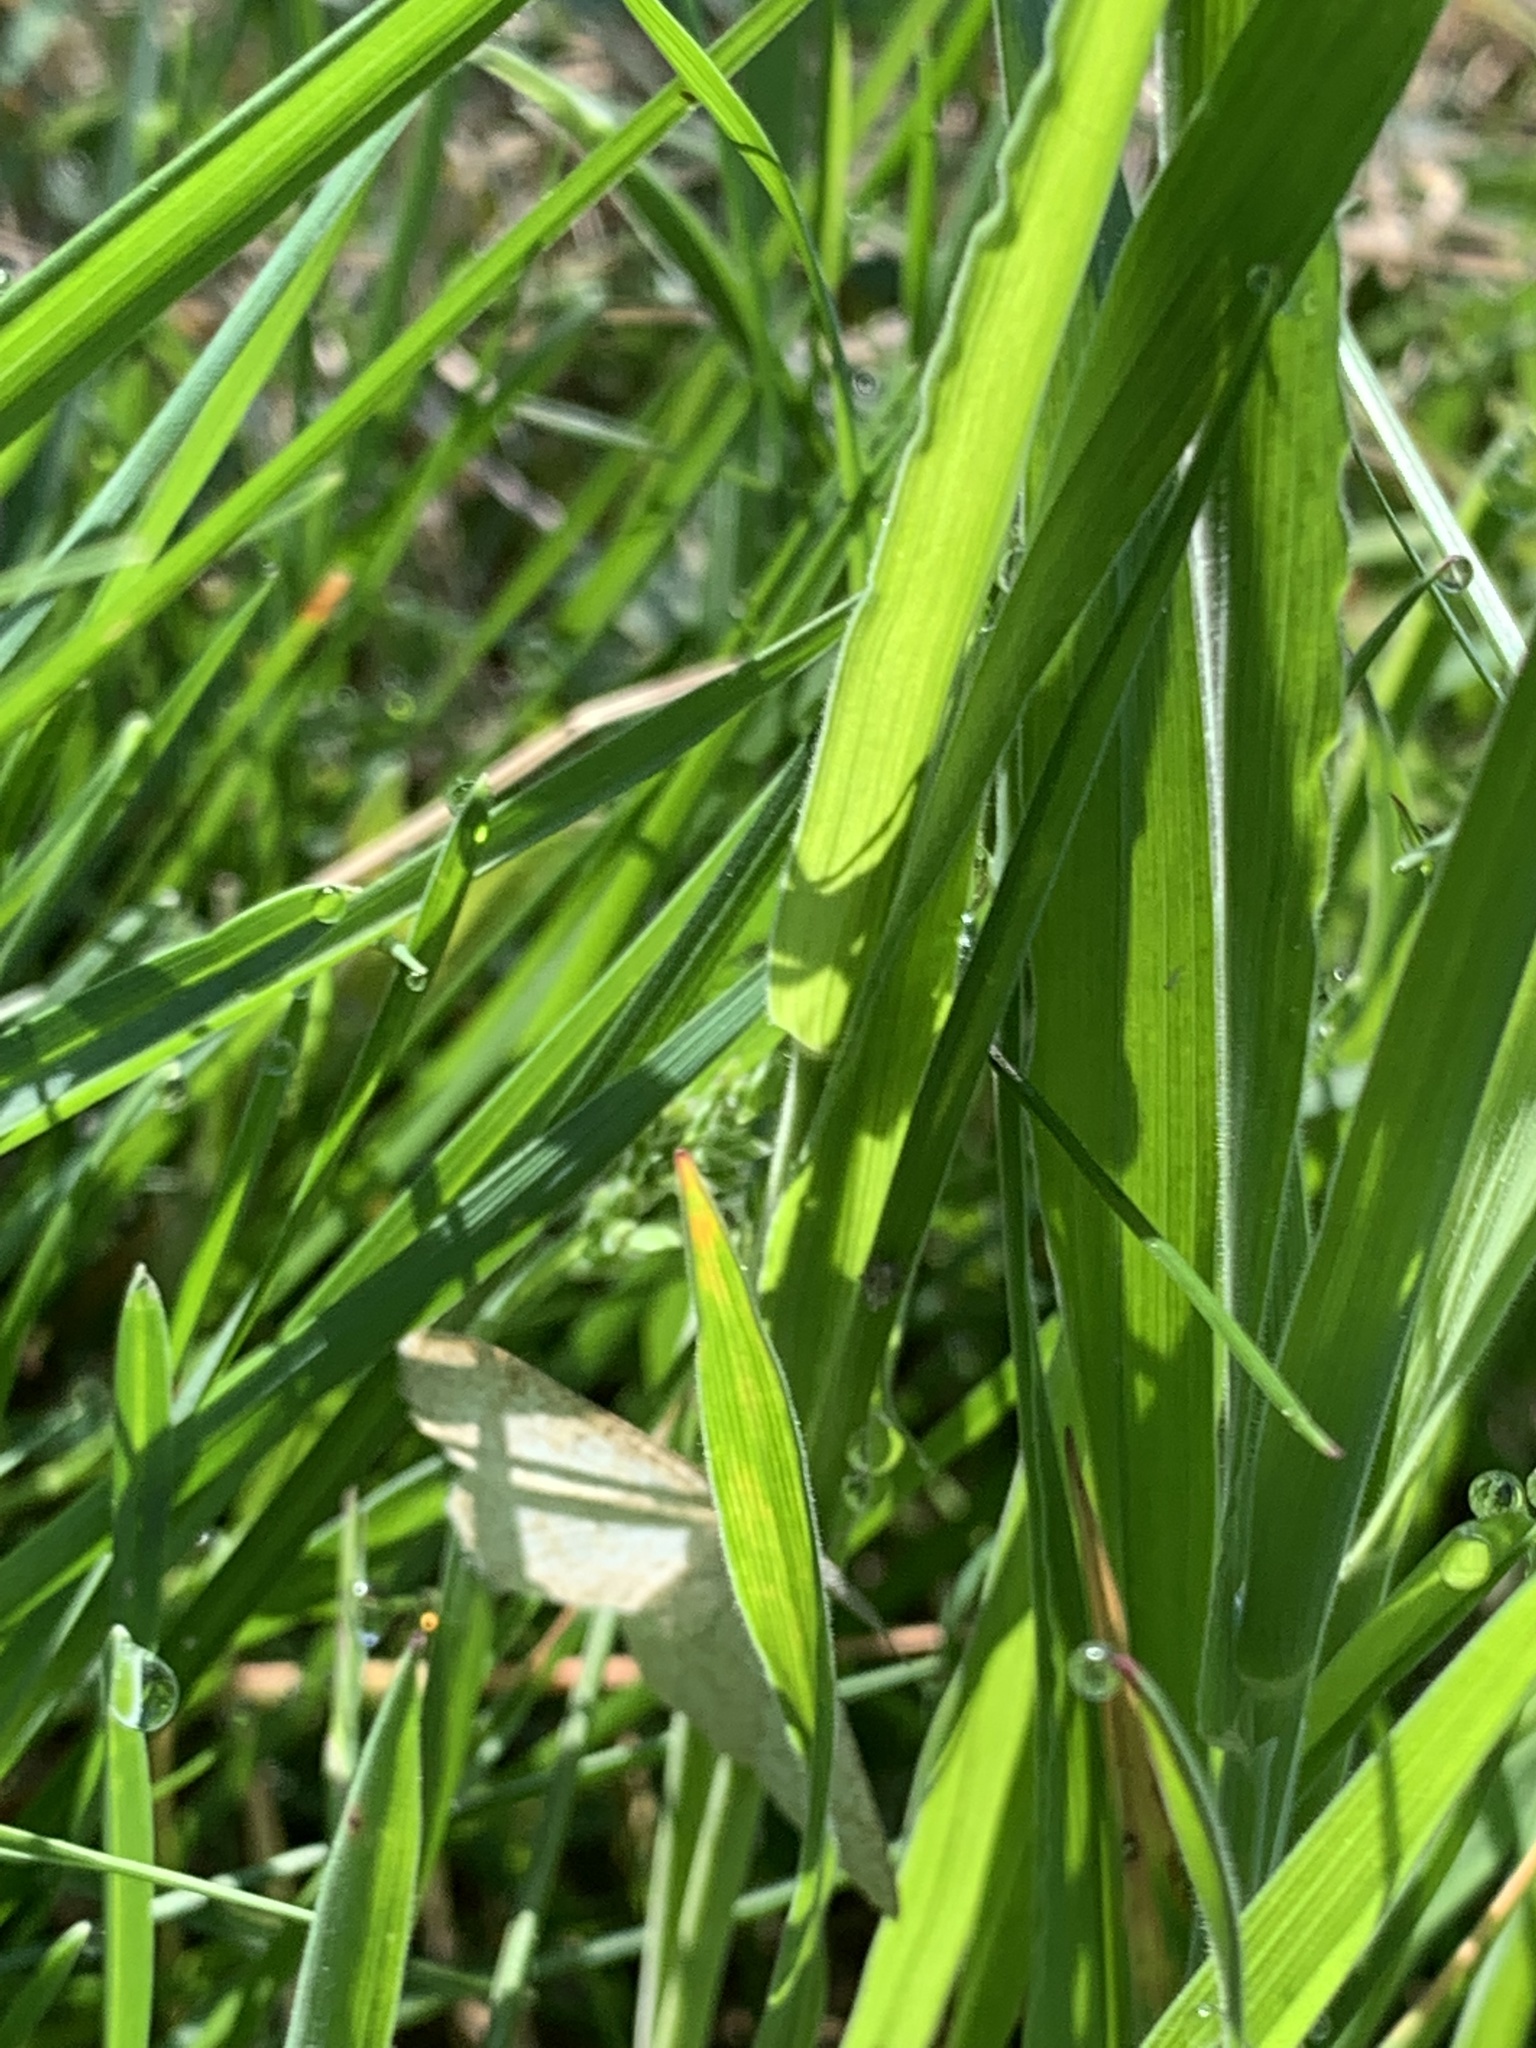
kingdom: Animalia
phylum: Arthropoda
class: Insecta
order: Lepidoptera
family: Geometridae
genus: Cabera
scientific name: Cabera exanthemata
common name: Common wave
